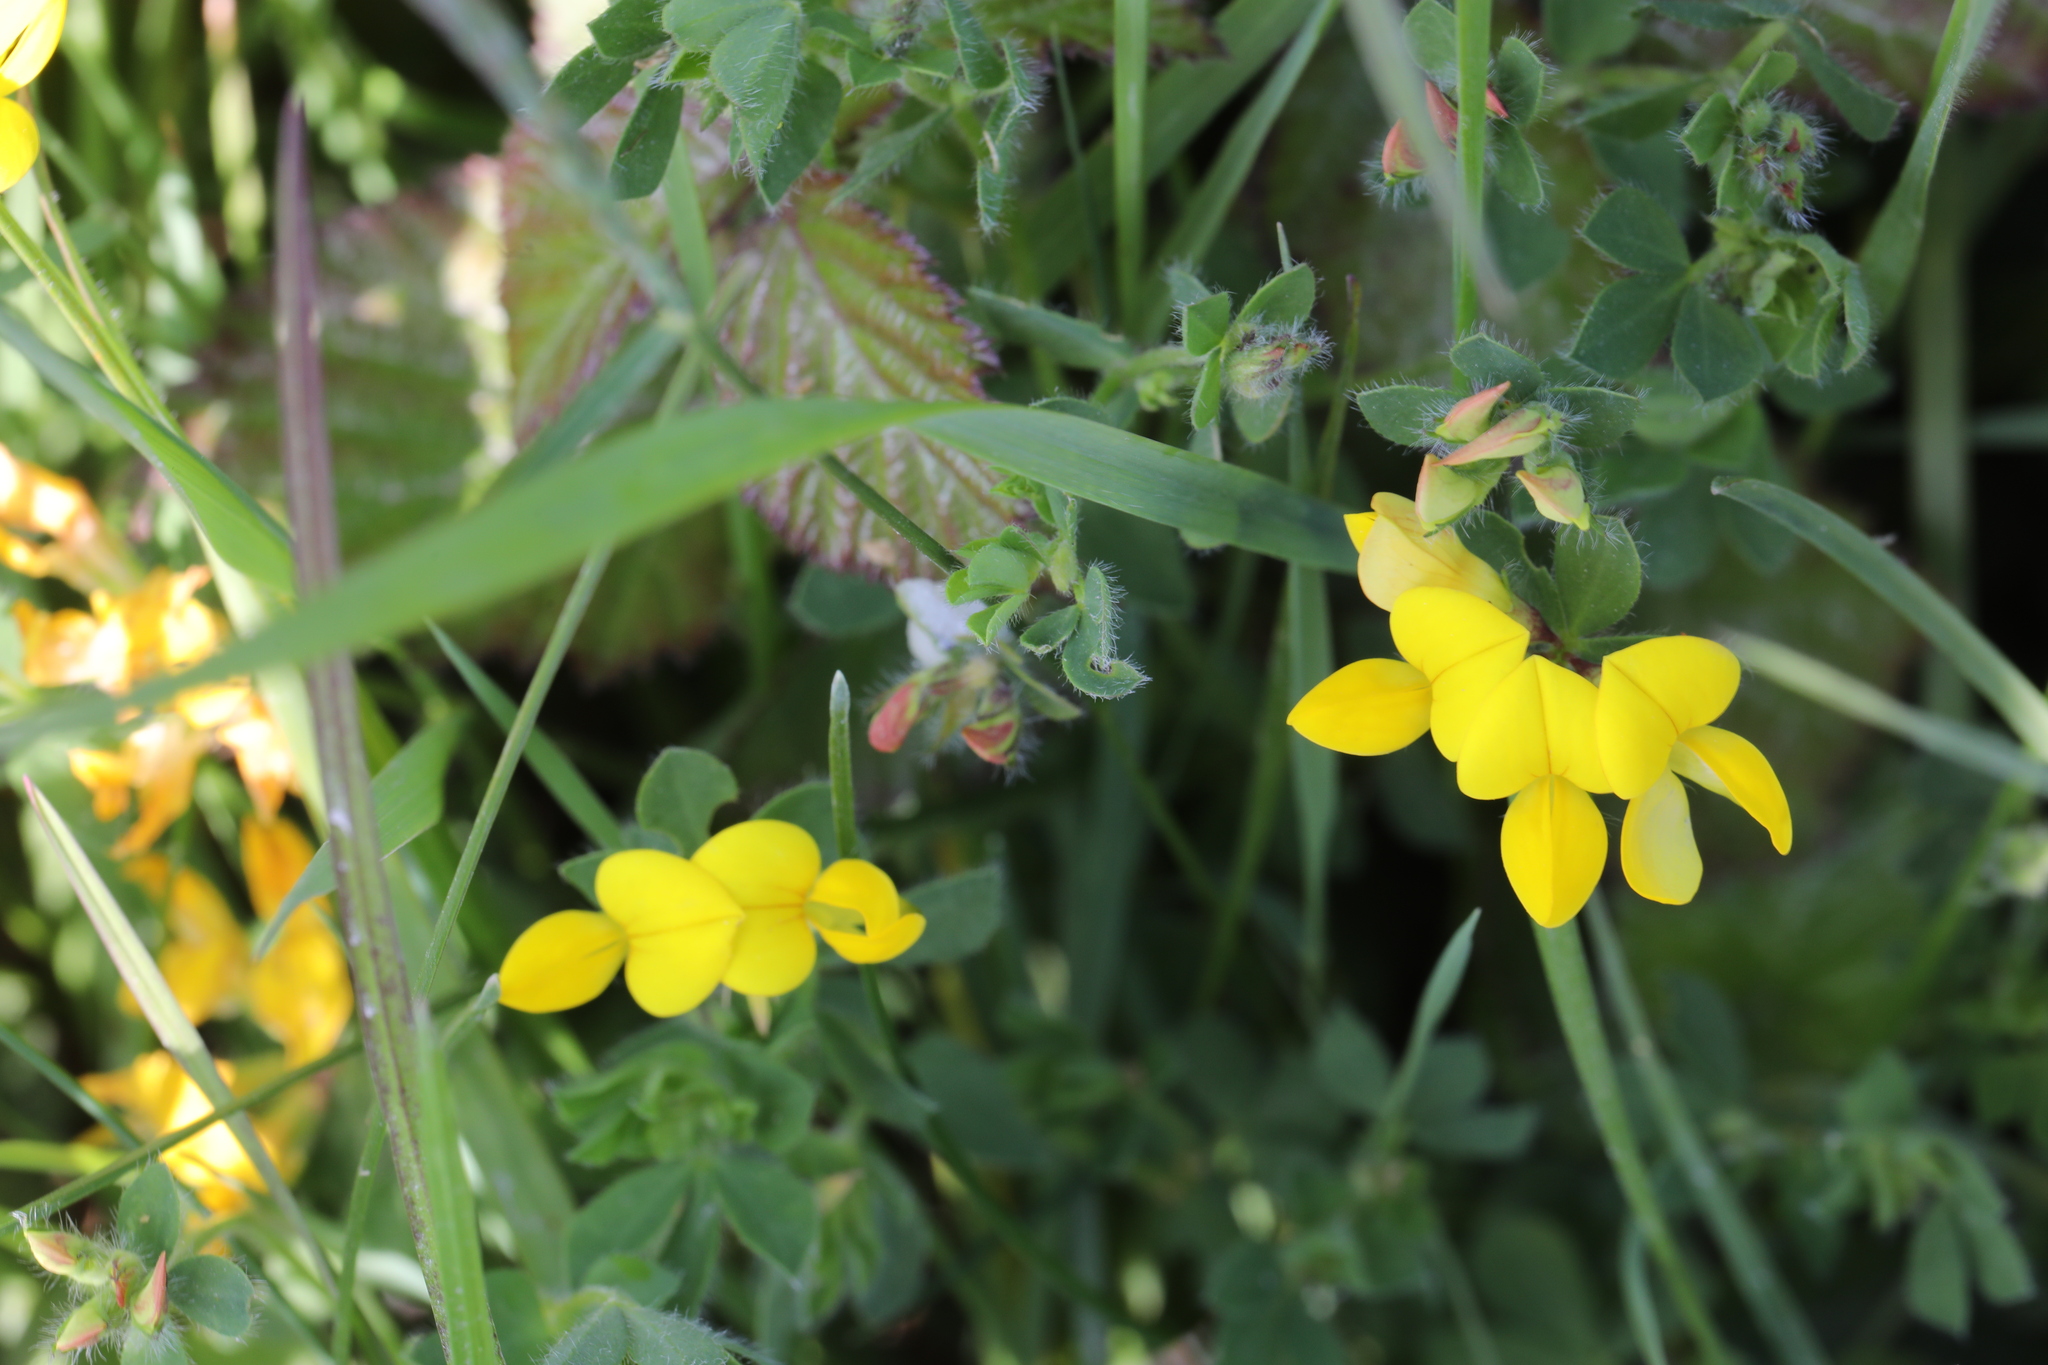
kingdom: Plantae
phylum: Tracheophyta
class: Magnoliopsida
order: Fabales
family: Fabaceae
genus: Lotus
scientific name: Lotus corniculatus
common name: Common bird's-foot-trefoil
